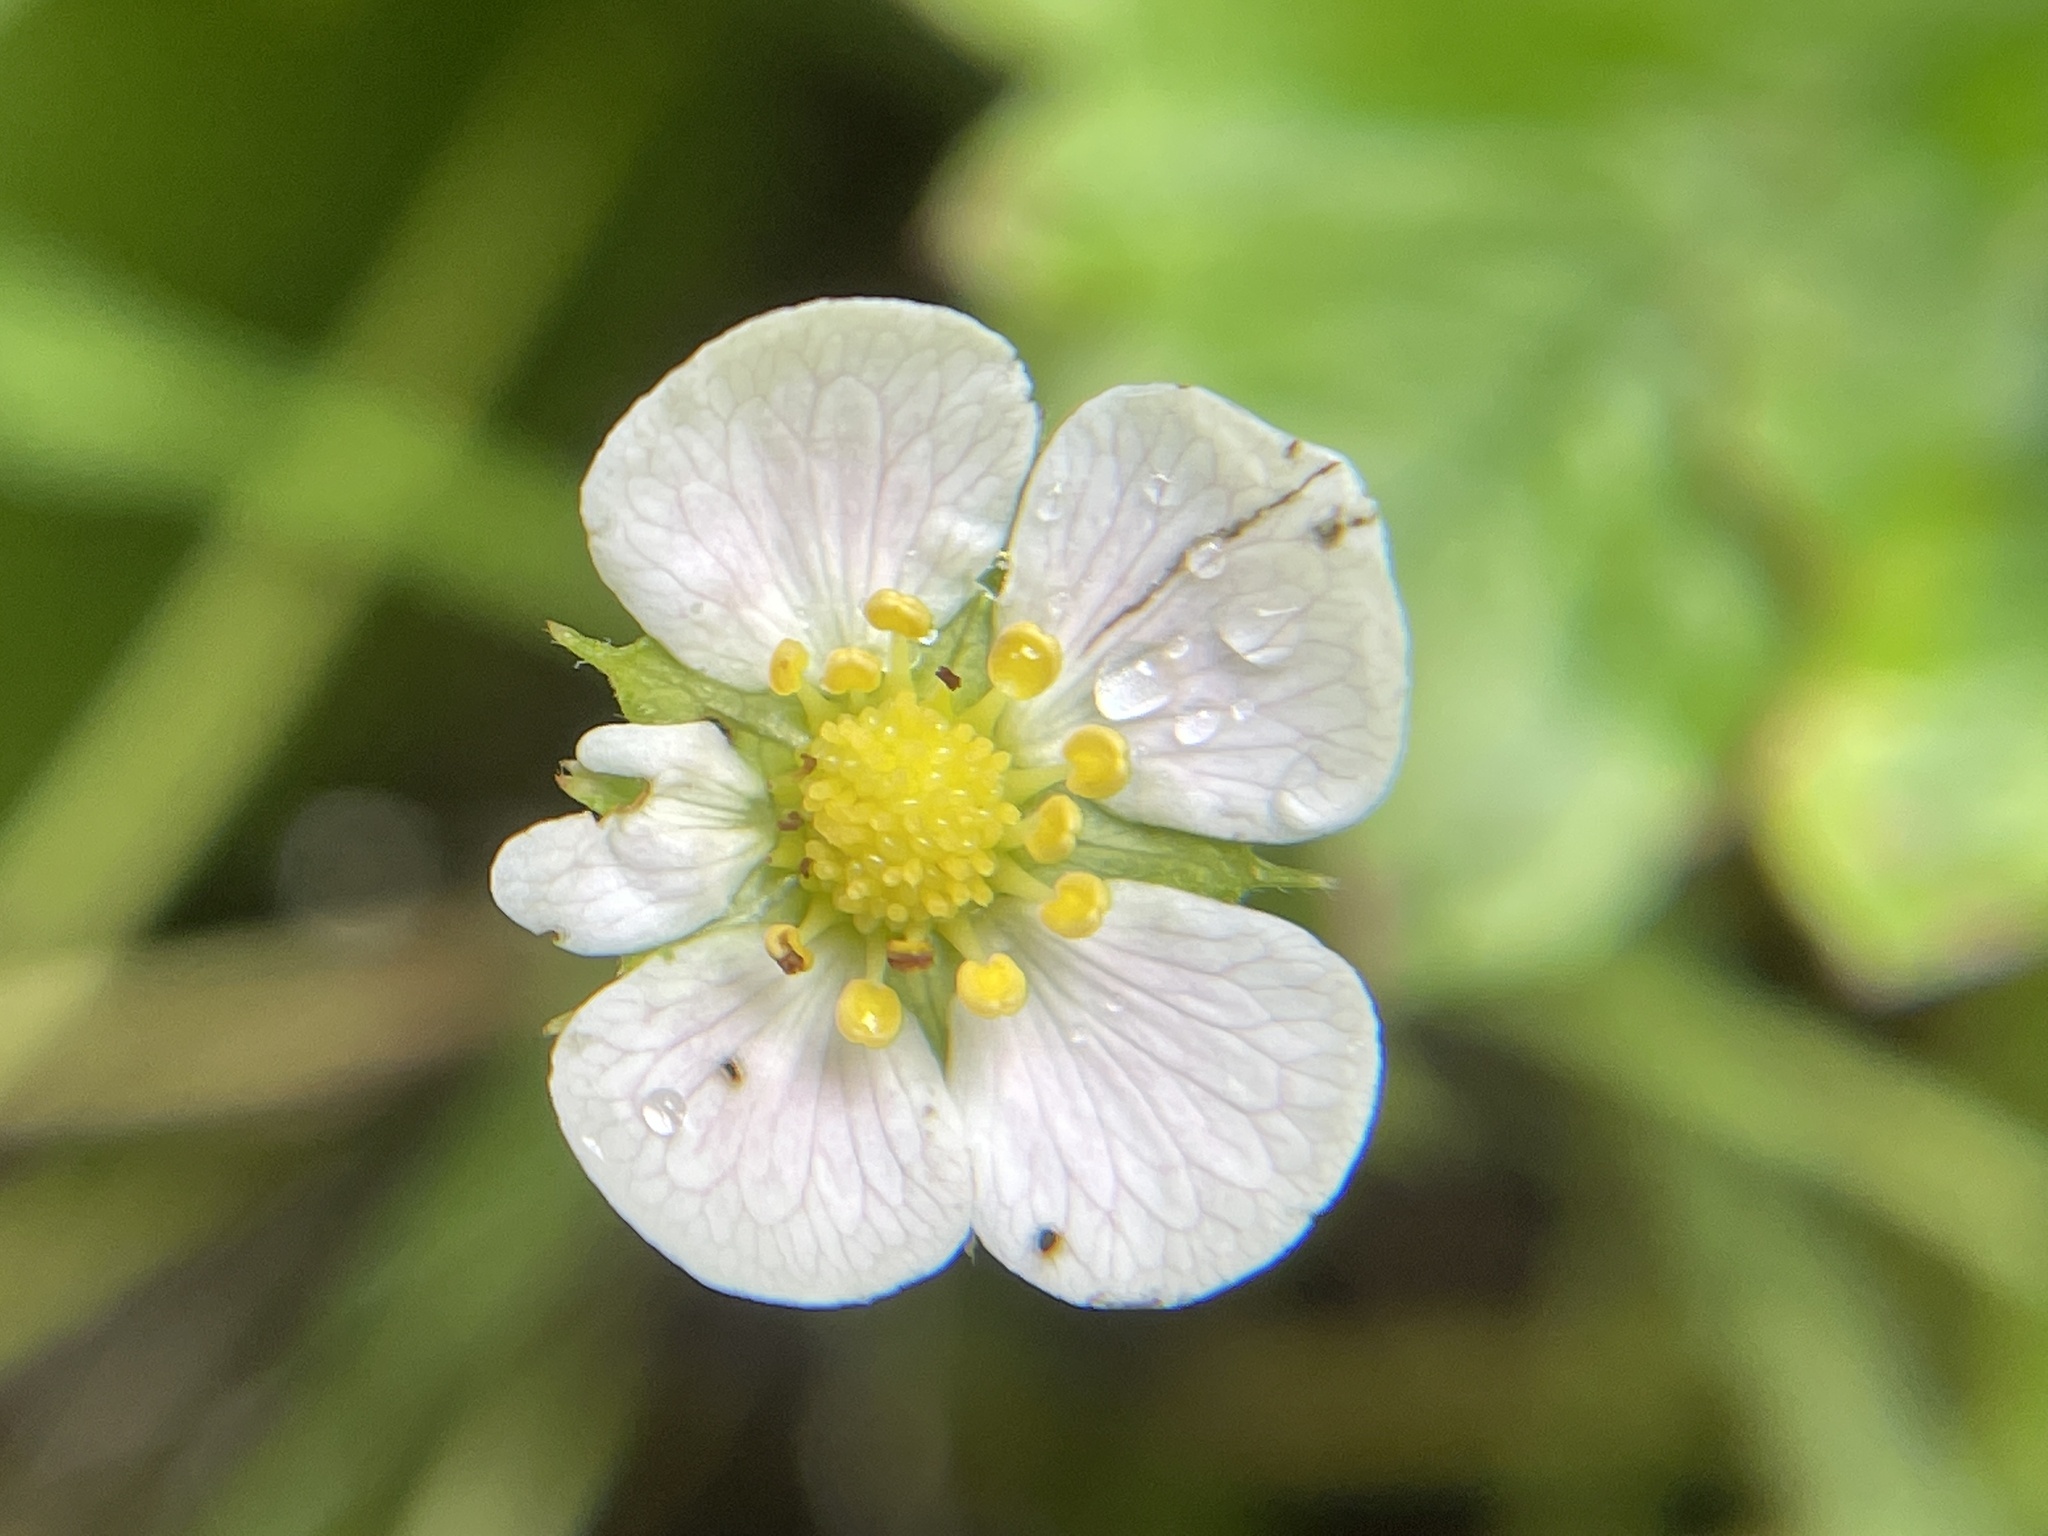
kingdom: Plantae
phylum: Tracheophyta
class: Magnoliopsida
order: Rosales
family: Rosaceae
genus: Fragaria
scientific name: Fragaria vesca
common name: Wild strawberry
